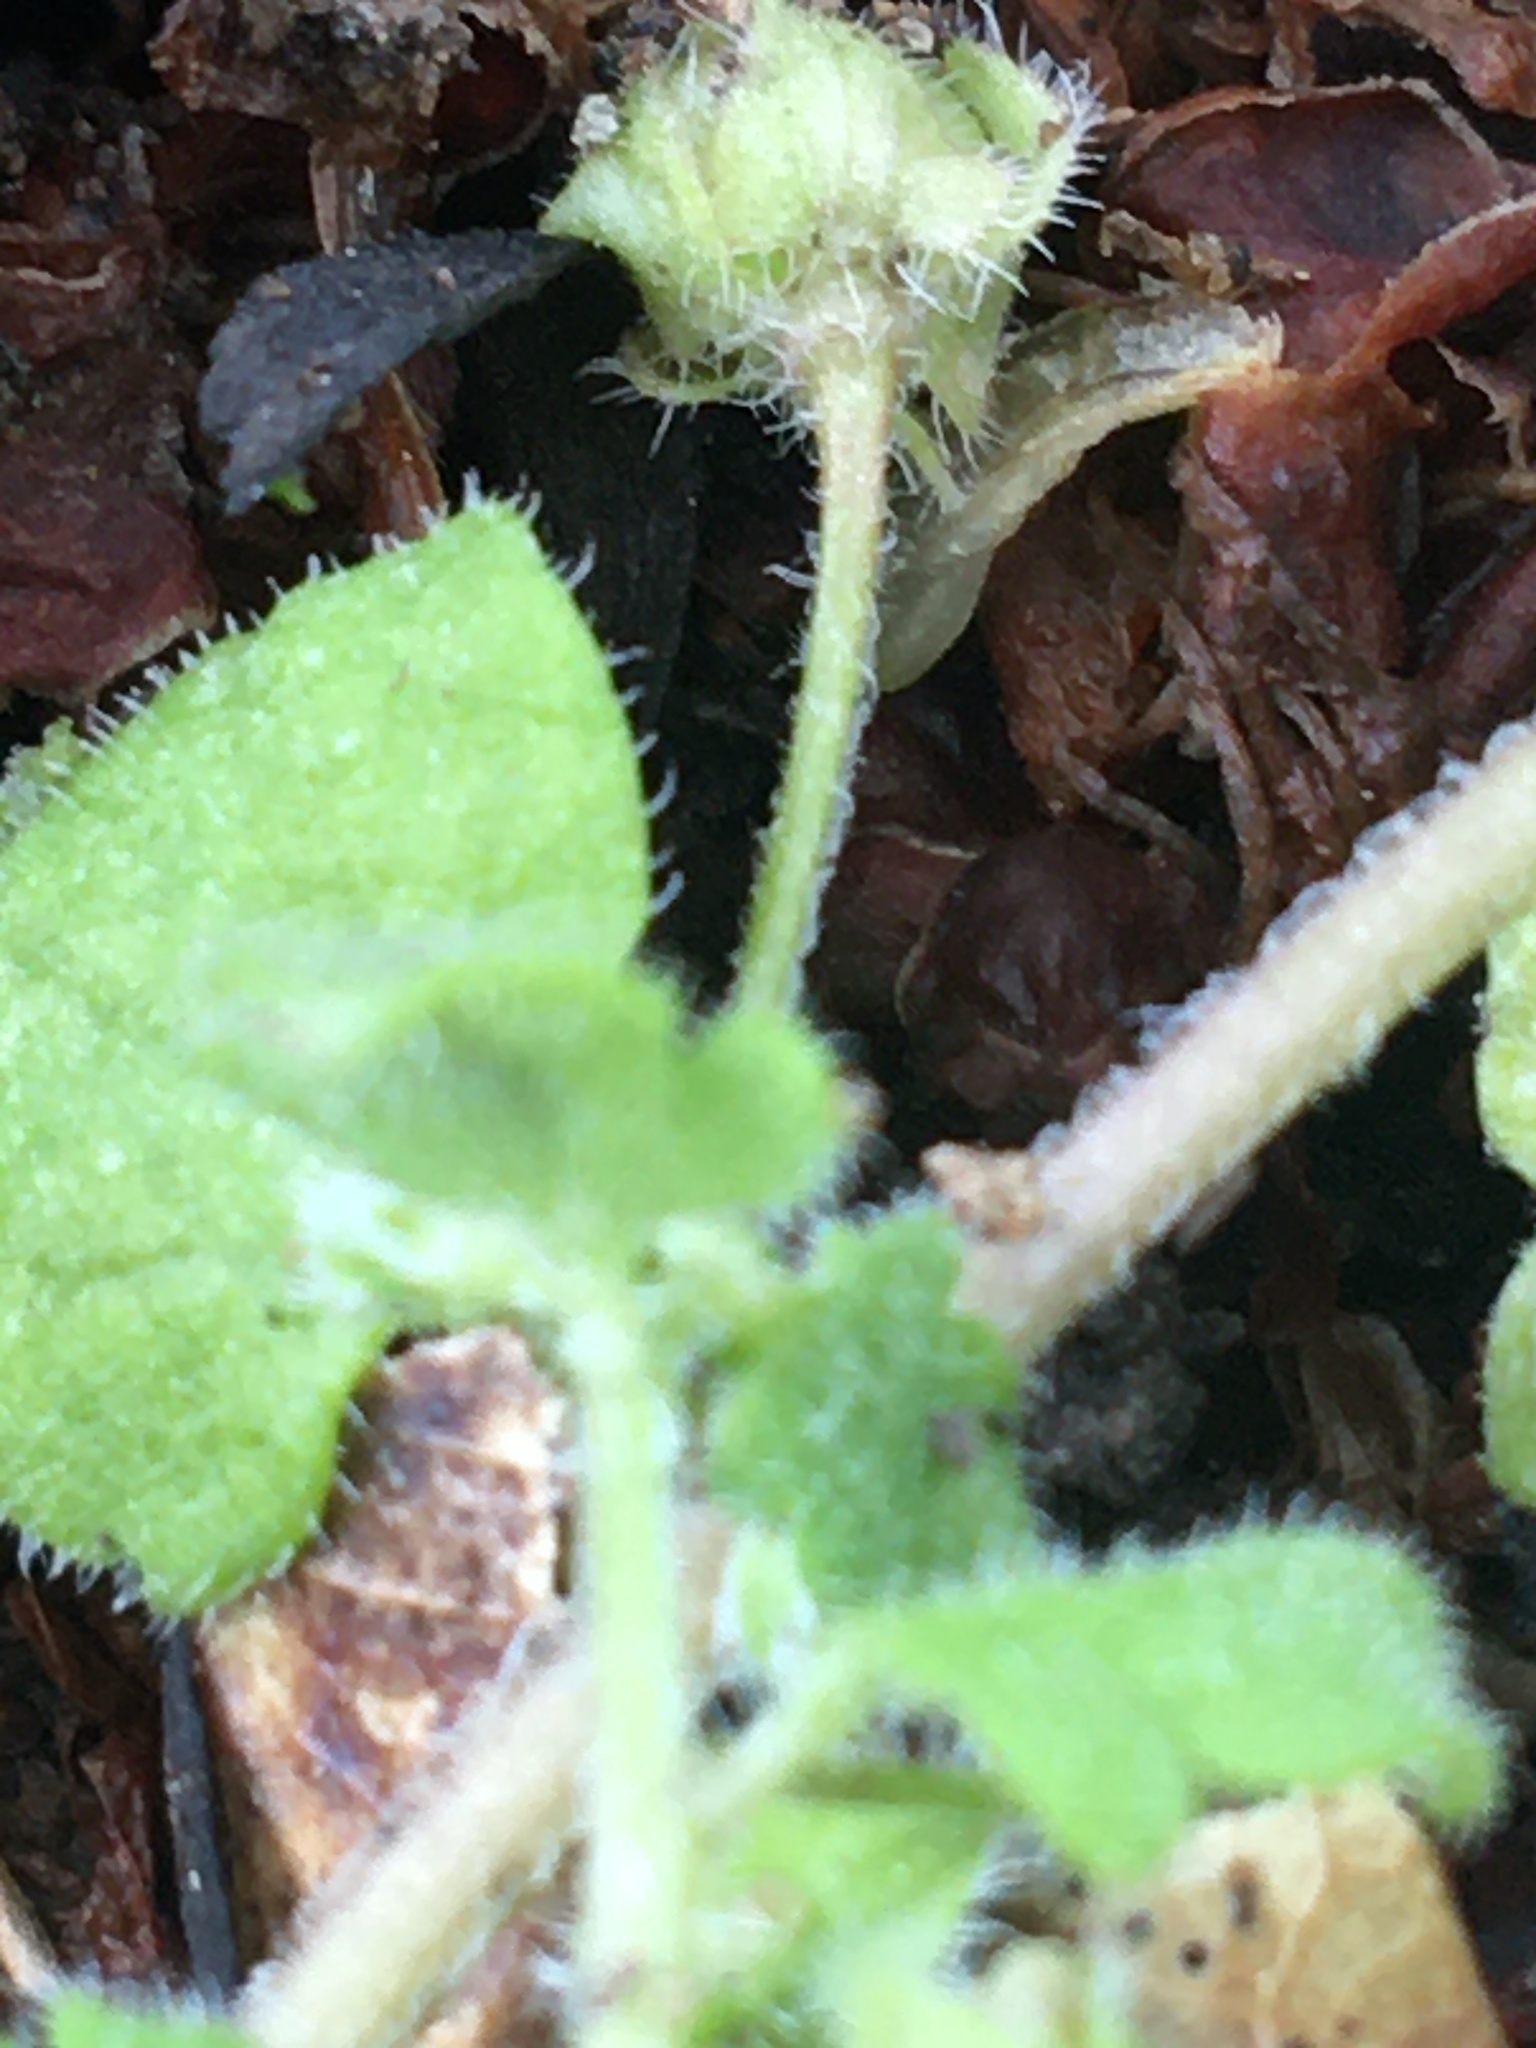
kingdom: Plantae
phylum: Tracheophyta
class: Magnoliopsida
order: Lamiales
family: Plantaginaceae
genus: Veronica
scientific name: Veronica sublobata
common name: False ivy-leaved speedwell
